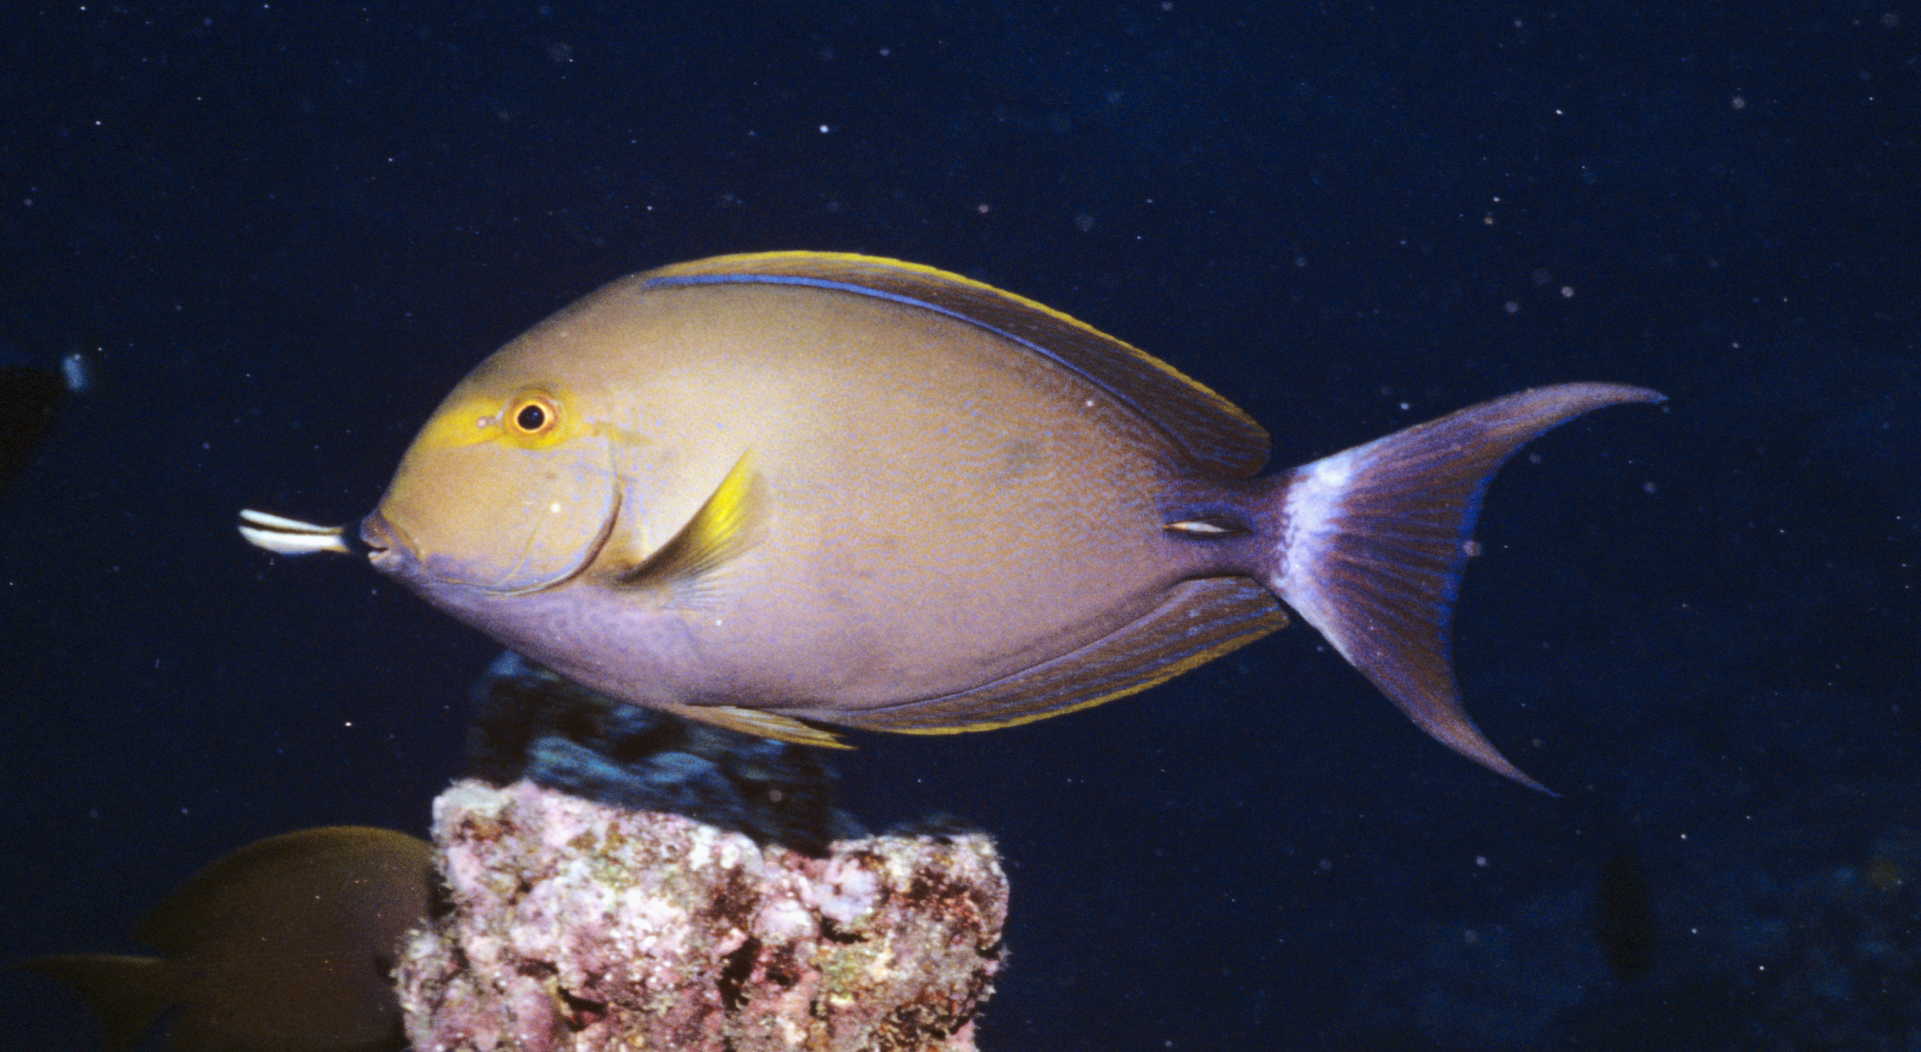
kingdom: Animalia
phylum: Chordata
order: Perciformes
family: Acanthuridae
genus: Acanthurus
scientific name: Acanthurus xanthopterus
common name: Cuvier's surgeonfish
